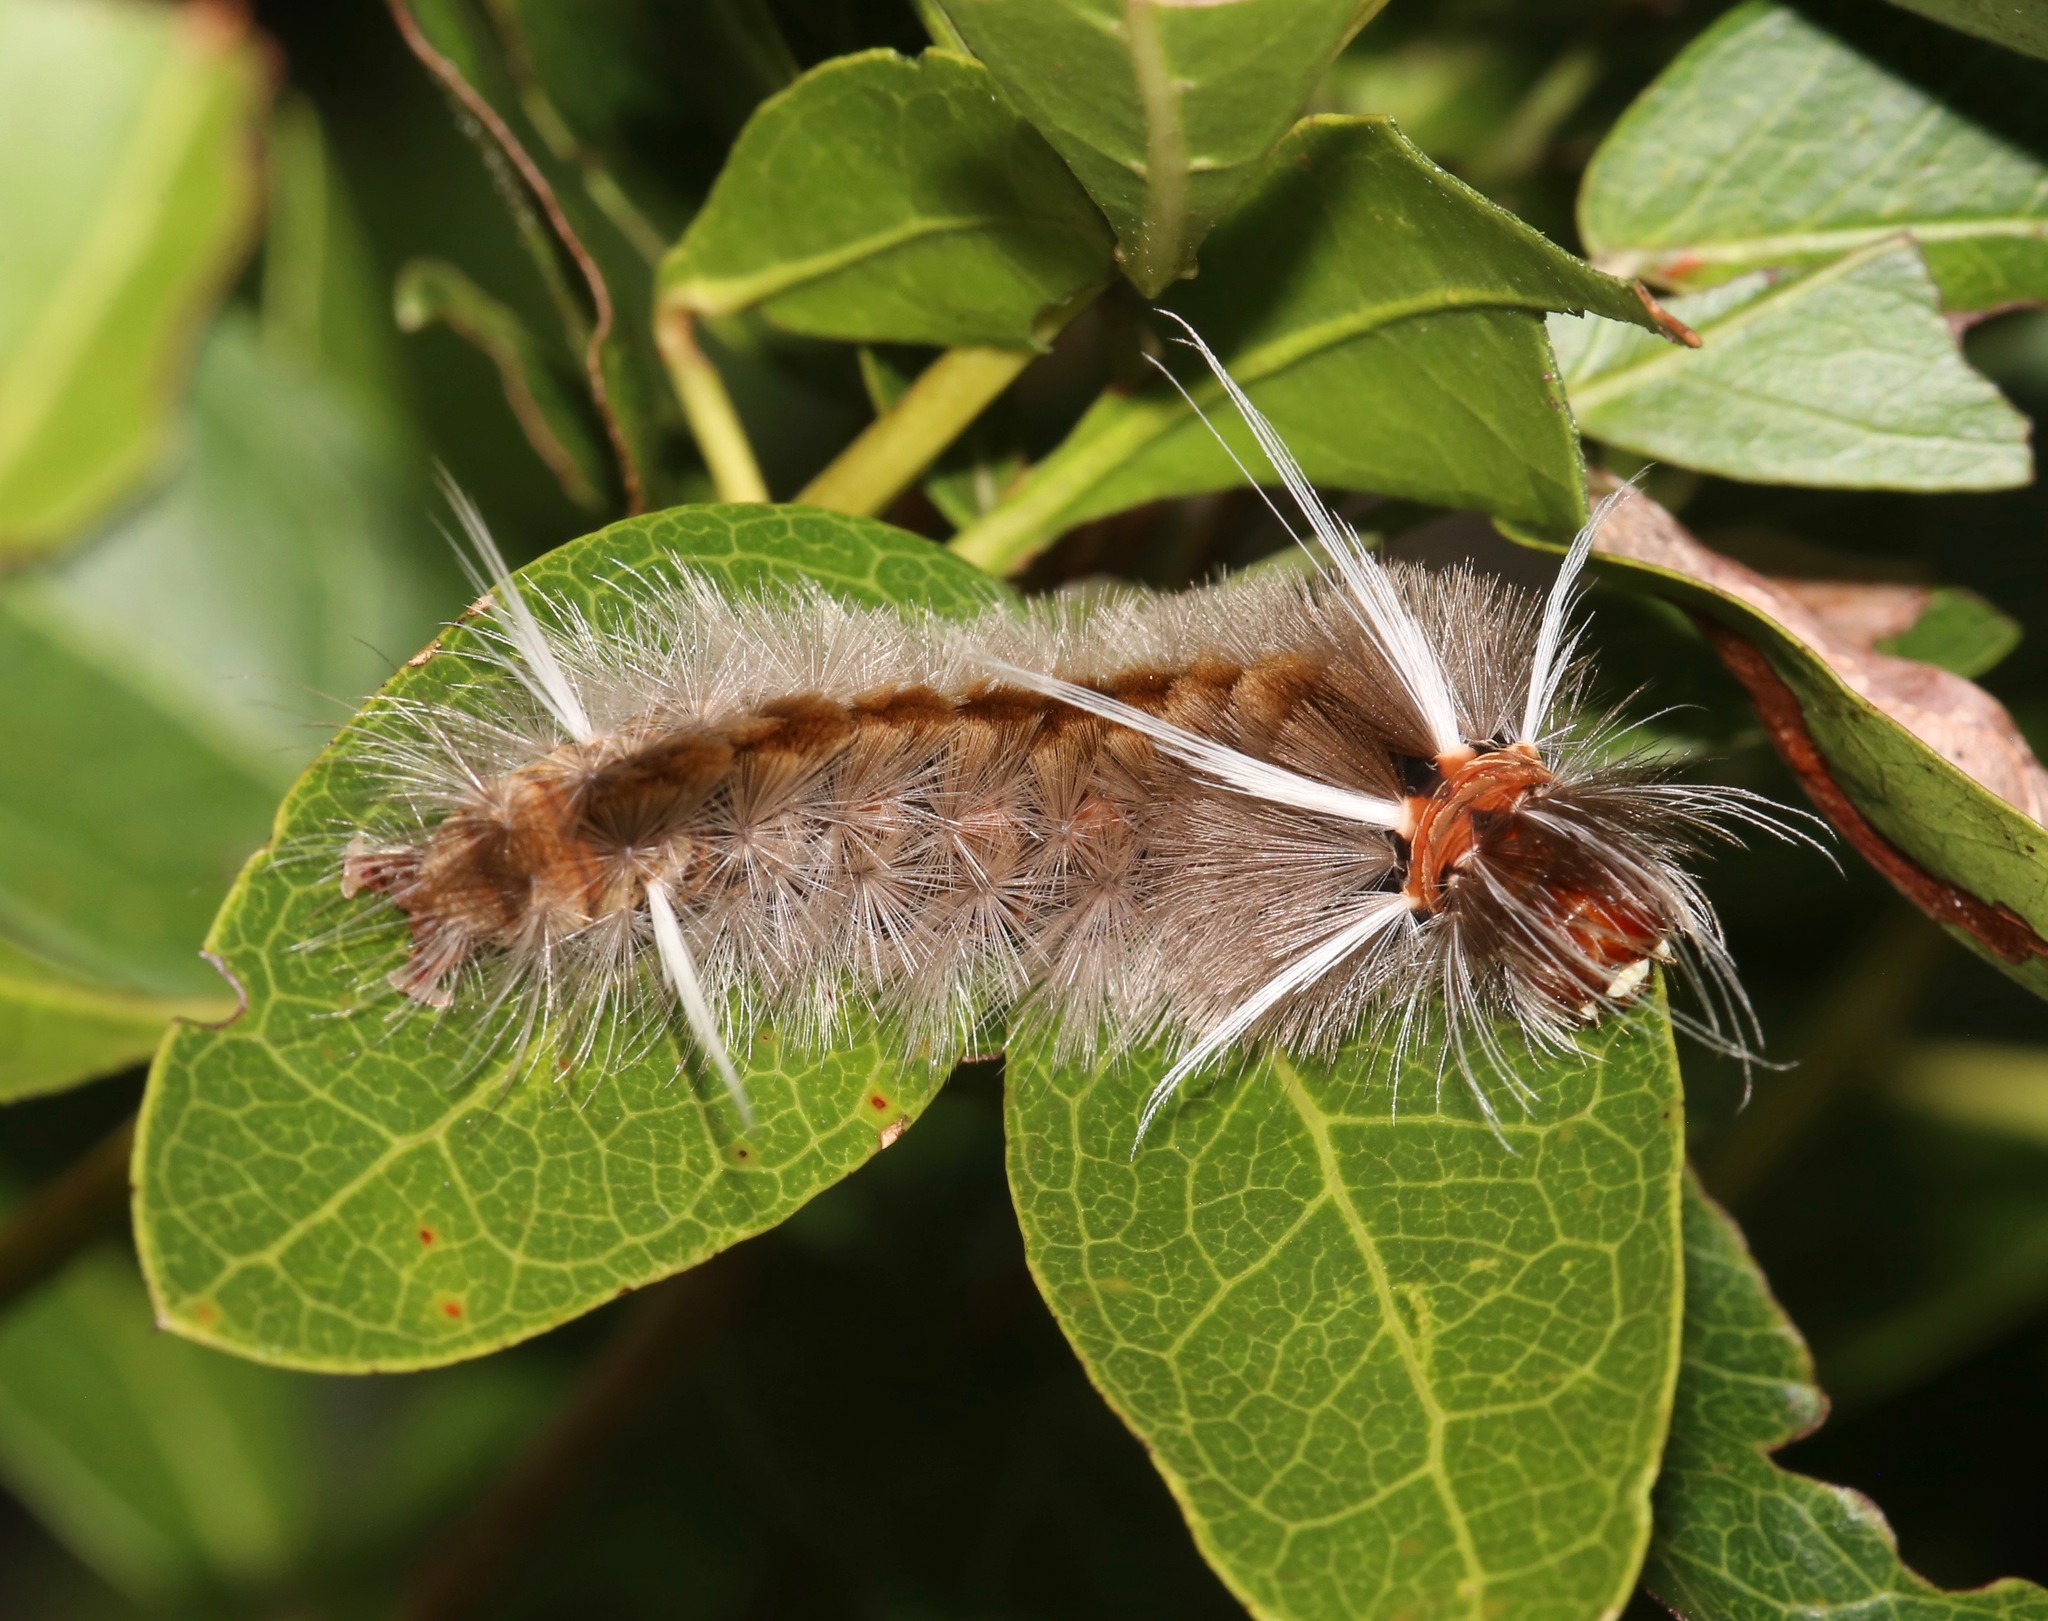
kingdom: Animalia
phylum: Arthropoda
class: Insecta
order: Lepidoptera
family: Erebidae
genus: Halysidota
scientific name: Halysidota cinctipes
